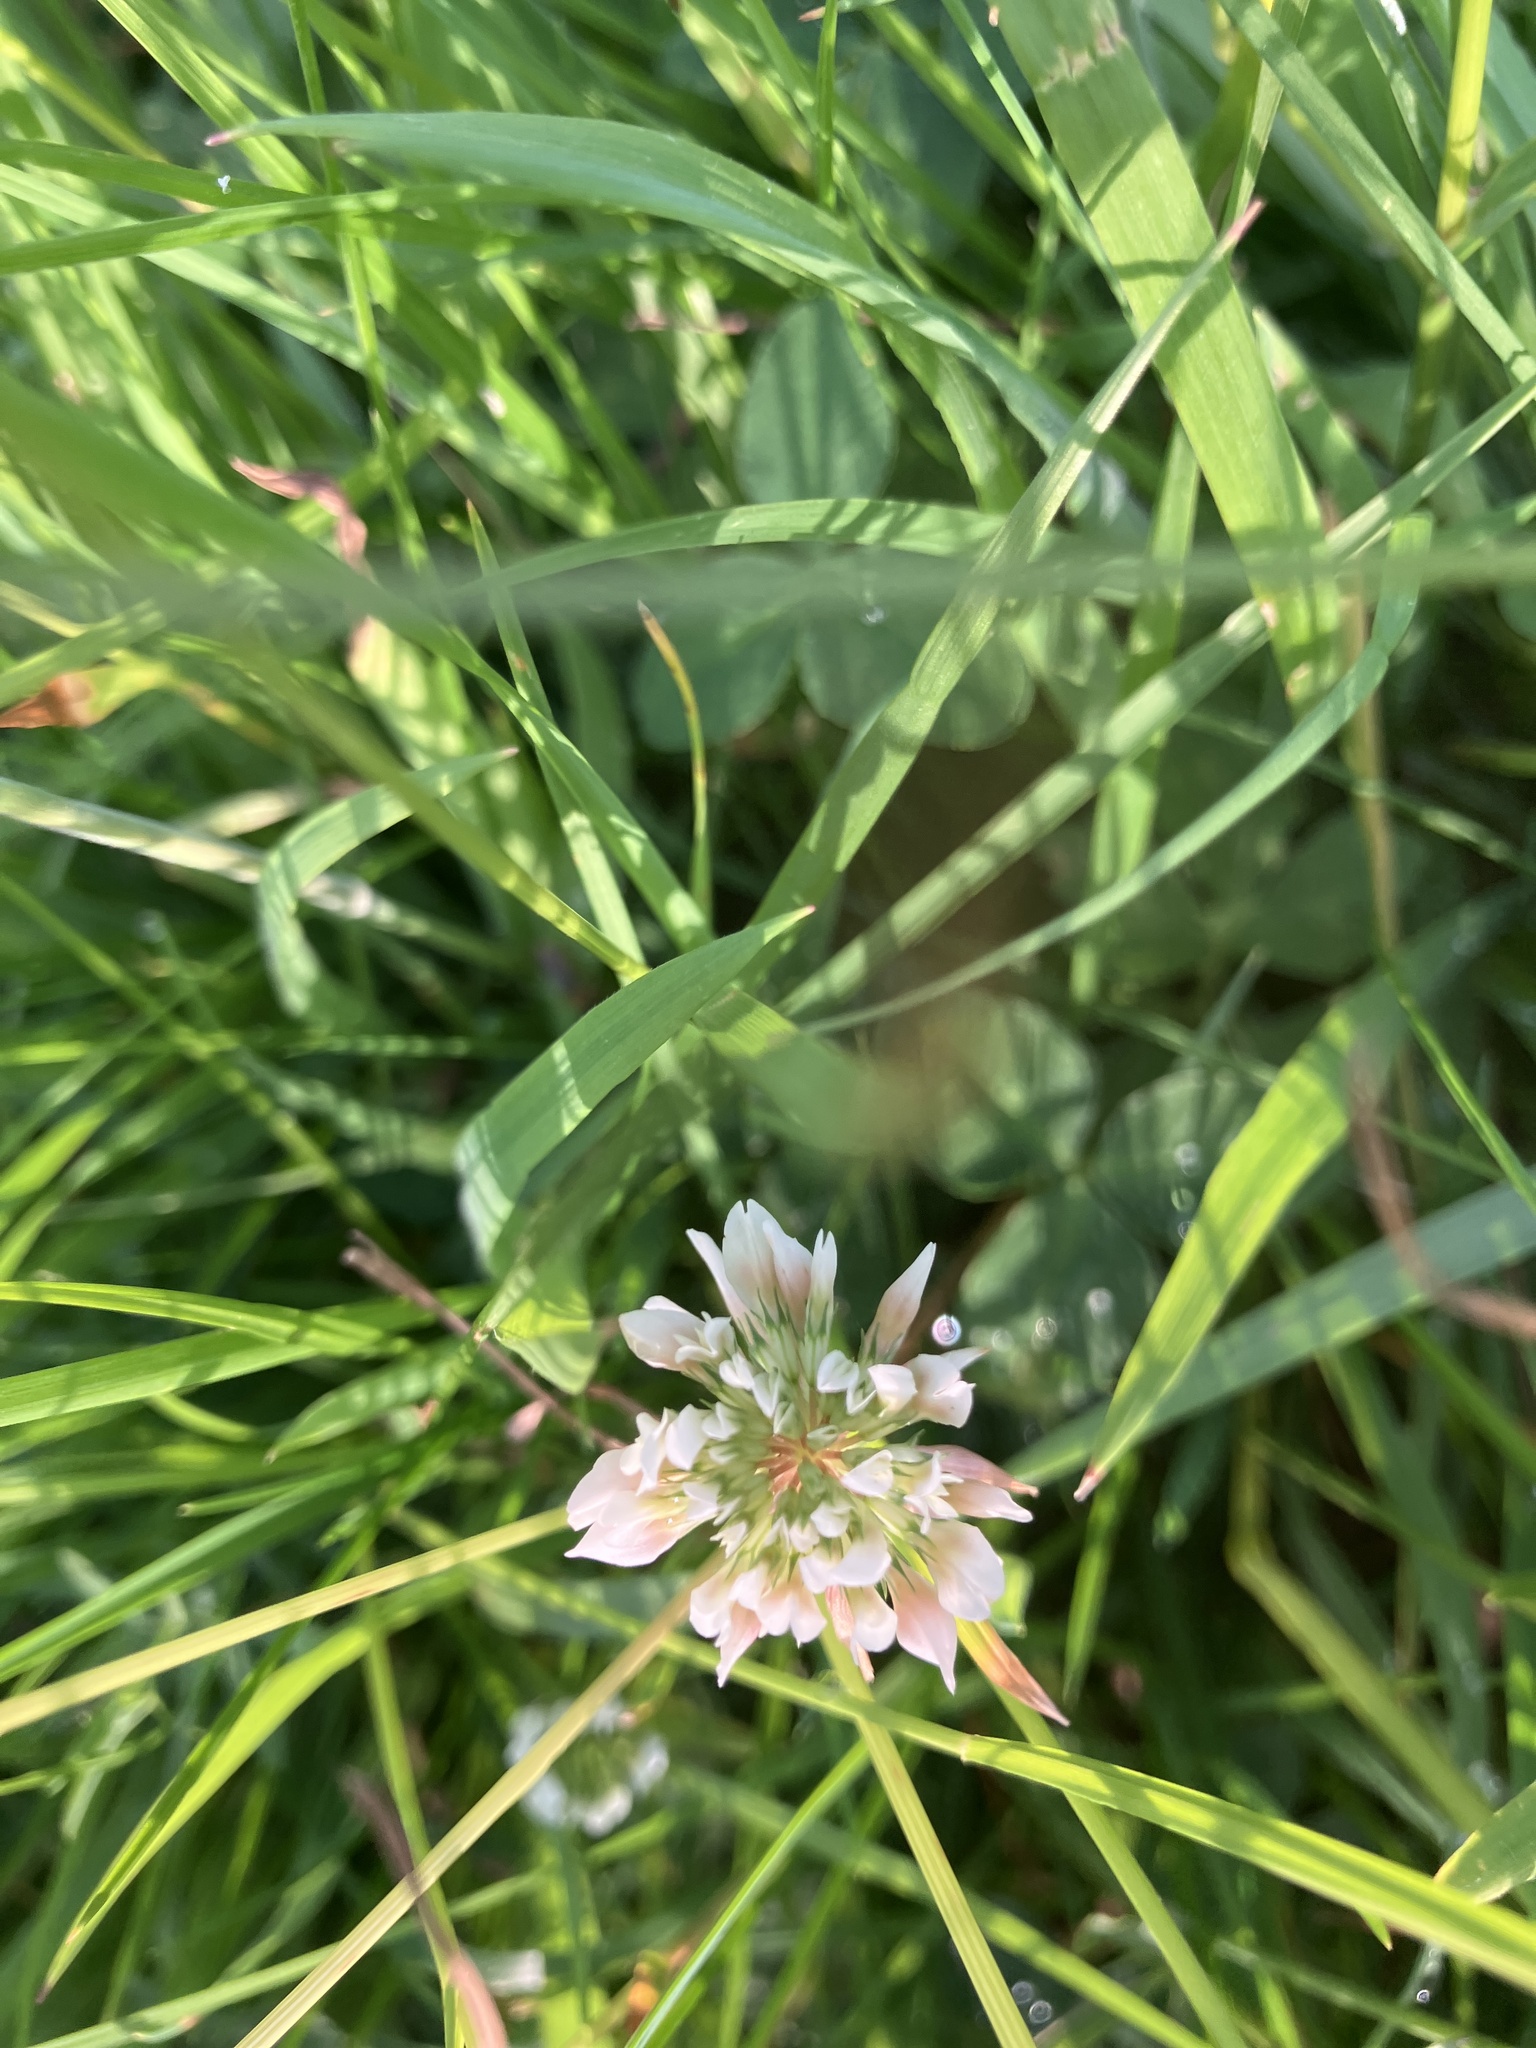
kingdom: Plantae
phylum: Tracheophyta
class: Magnoliopsida
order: Fabales
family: Fabaceae
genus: Trifolium
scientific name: Trifolium repens
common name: White clover
